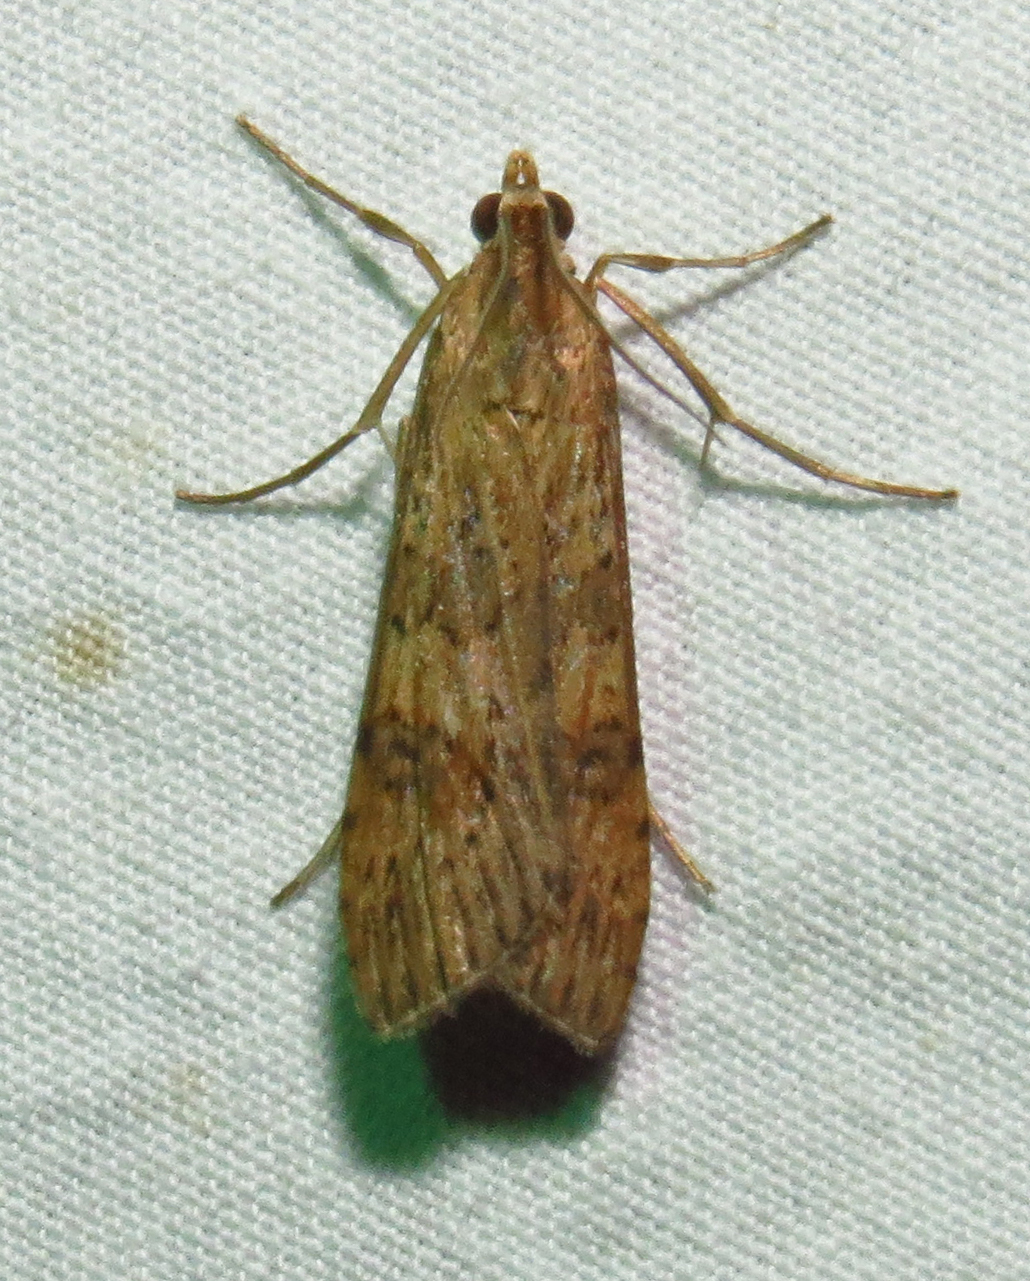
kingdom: Animalia
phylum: Arthropoda
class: Insecta
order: Lepidoptera
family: Crambidae
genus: Nomophila
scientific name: Nomophila nearctica
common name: American rush veneer
